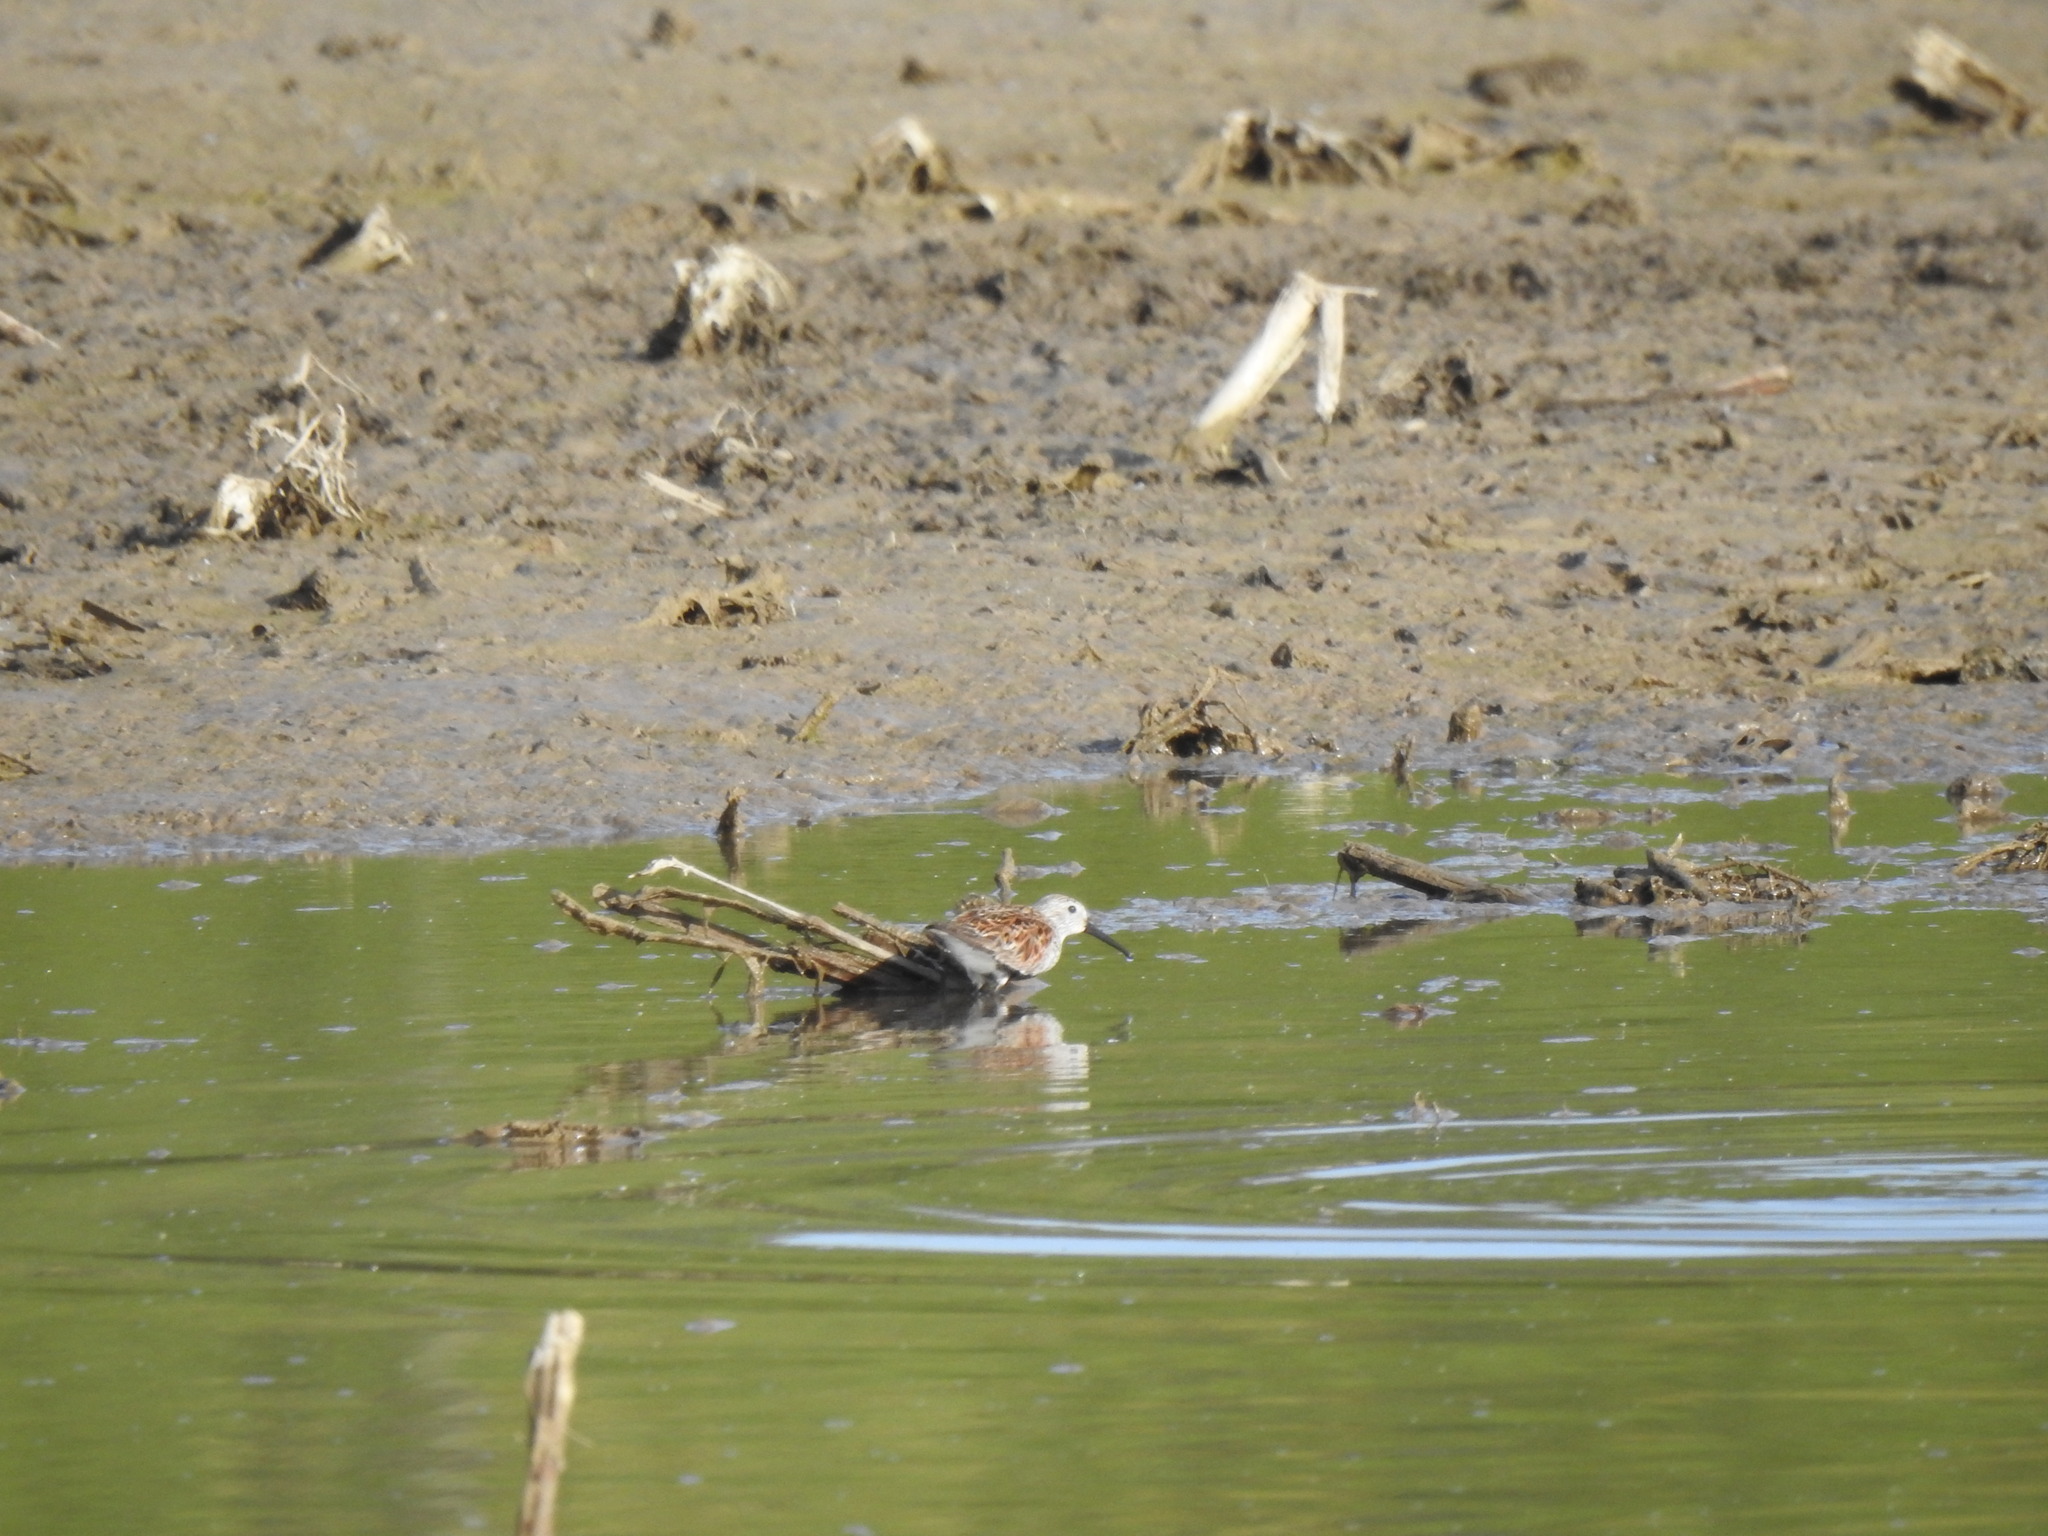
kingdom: Animalia
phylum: Chordata
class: Aves
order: Charadriiformes
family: Scolopacidae
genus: Calidris
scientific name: Calidris alpina
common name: Dunlin
